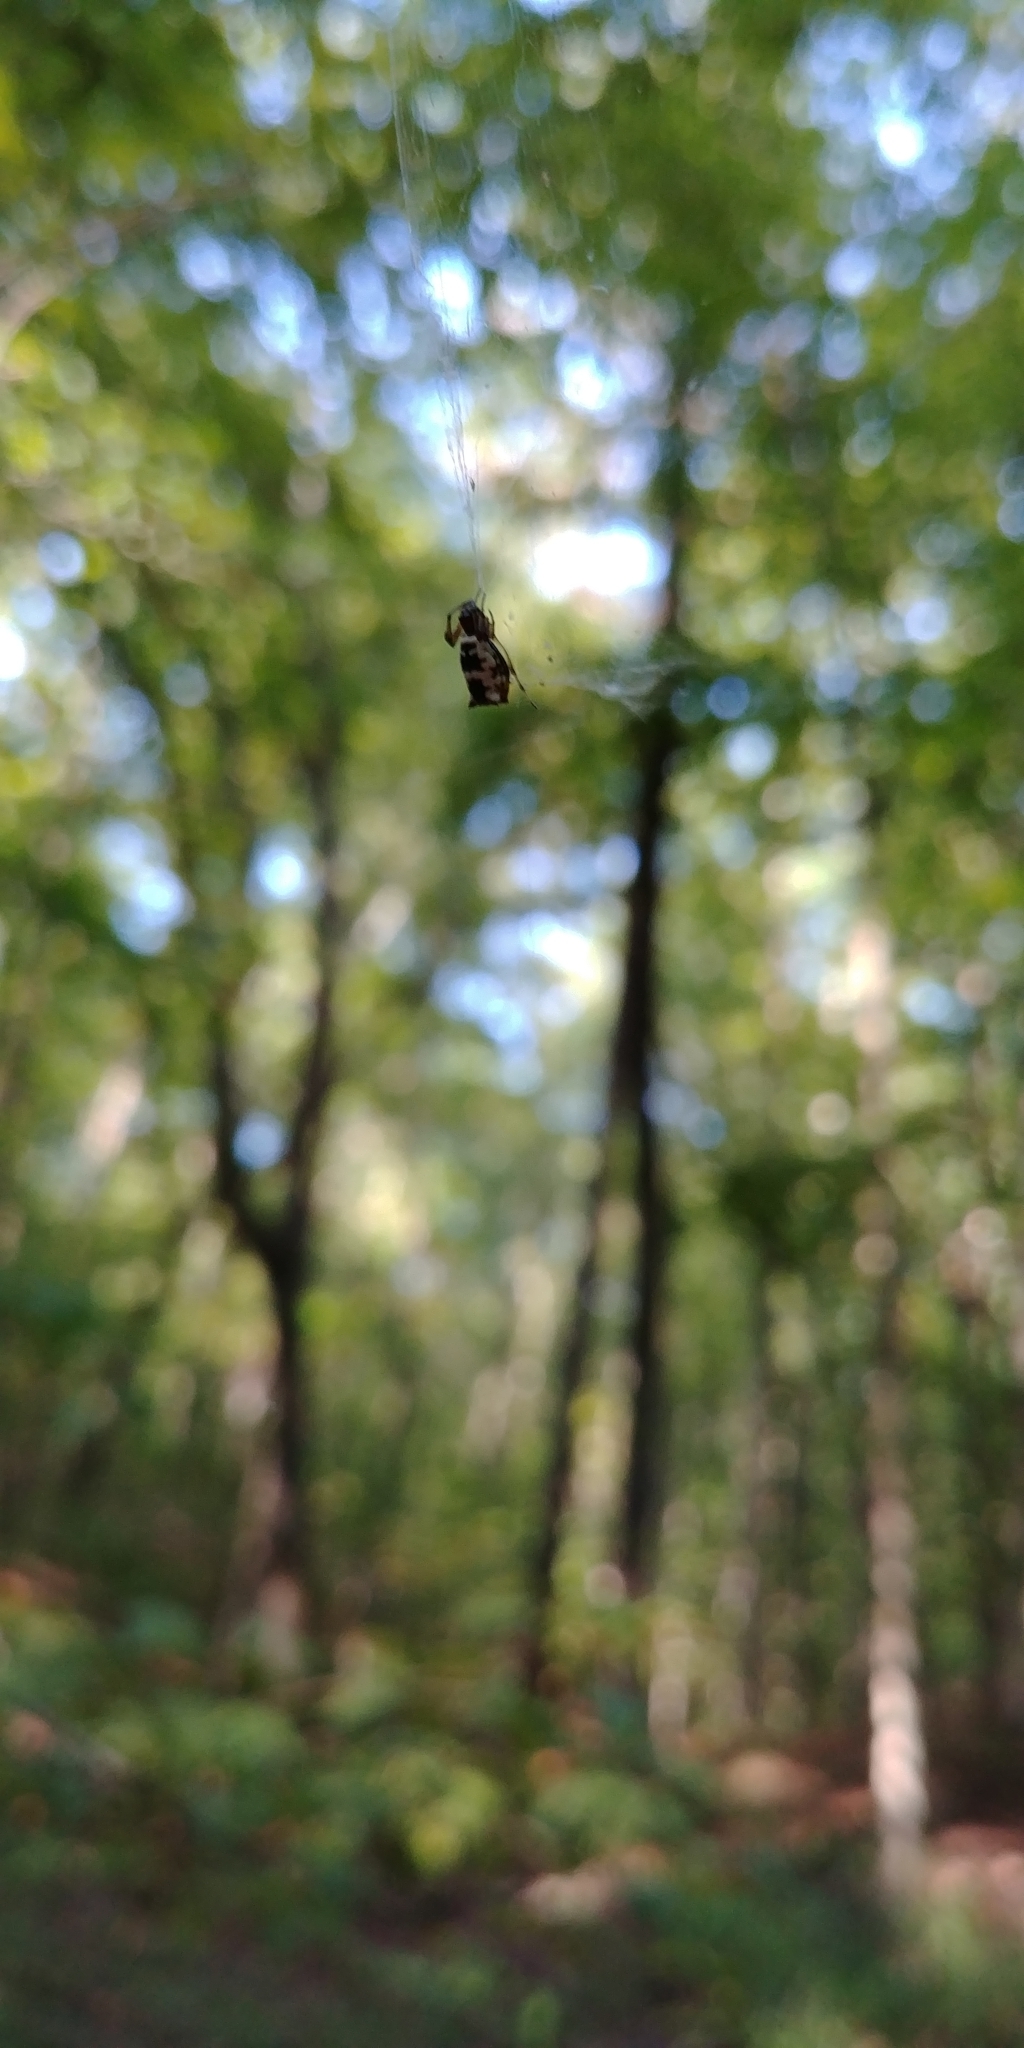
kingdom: Animalia
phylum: Arthropoda
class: Arachnida
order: Araneae
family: Araneidae
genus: Micrathena
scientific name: Micrathena mitrata
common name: Orb weavers
